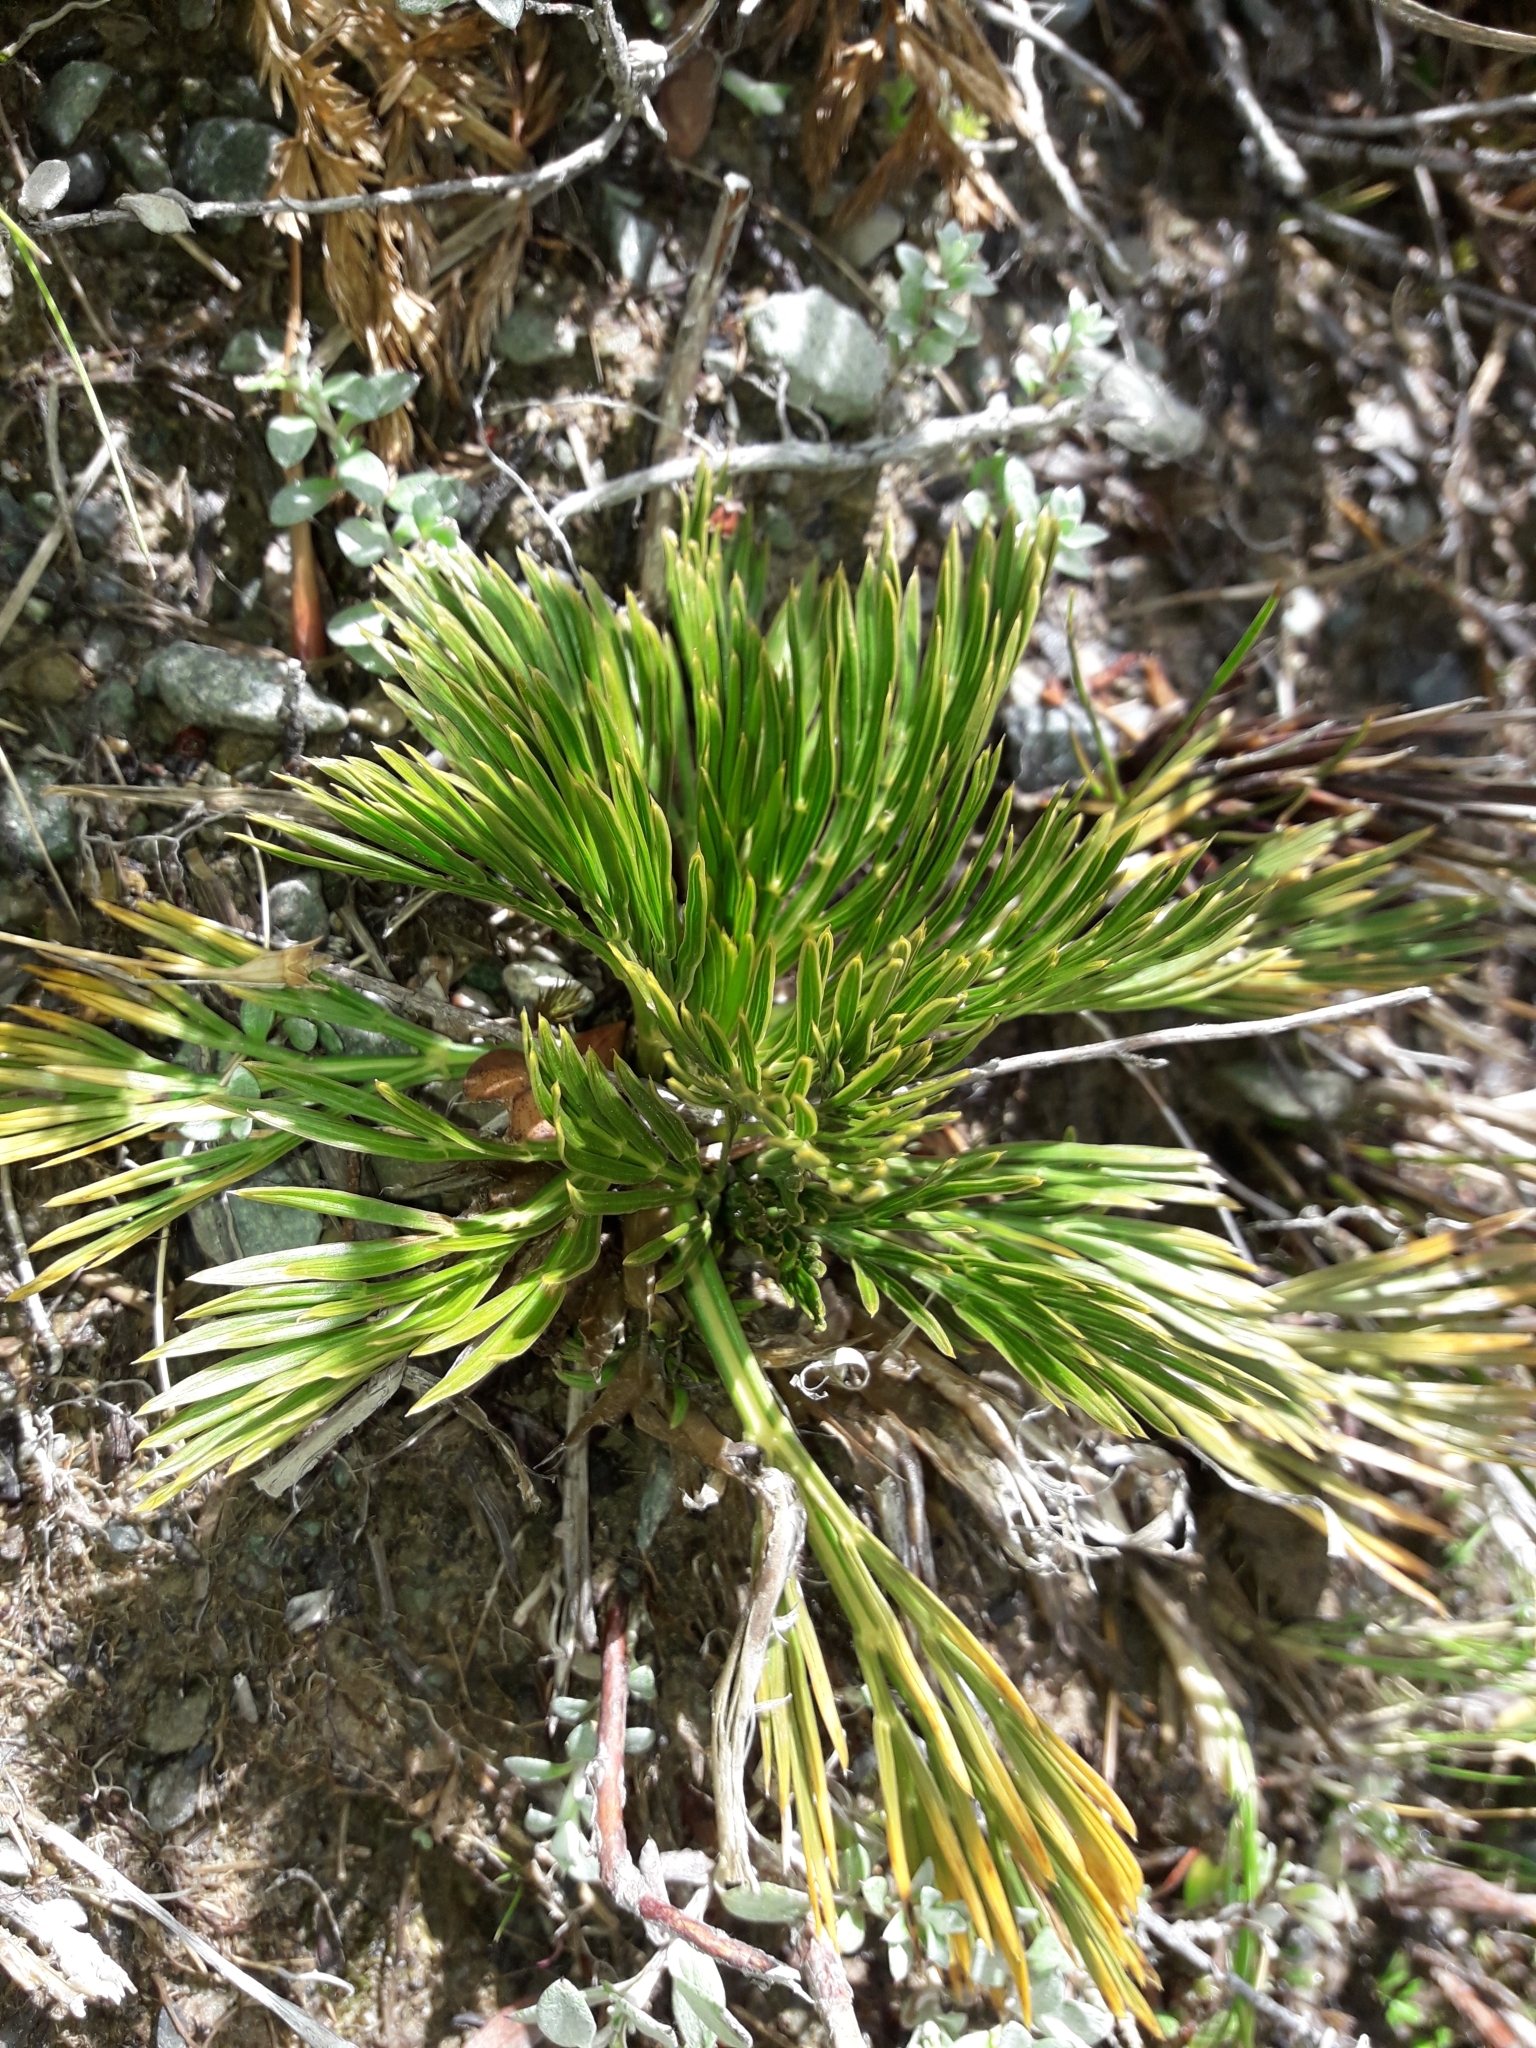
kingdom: Plantae
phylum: Tracheophyta
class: Magnoliopsida
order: Apiales
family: Apiaceae
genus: Aciphylla
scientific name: Aciphylla divisa
